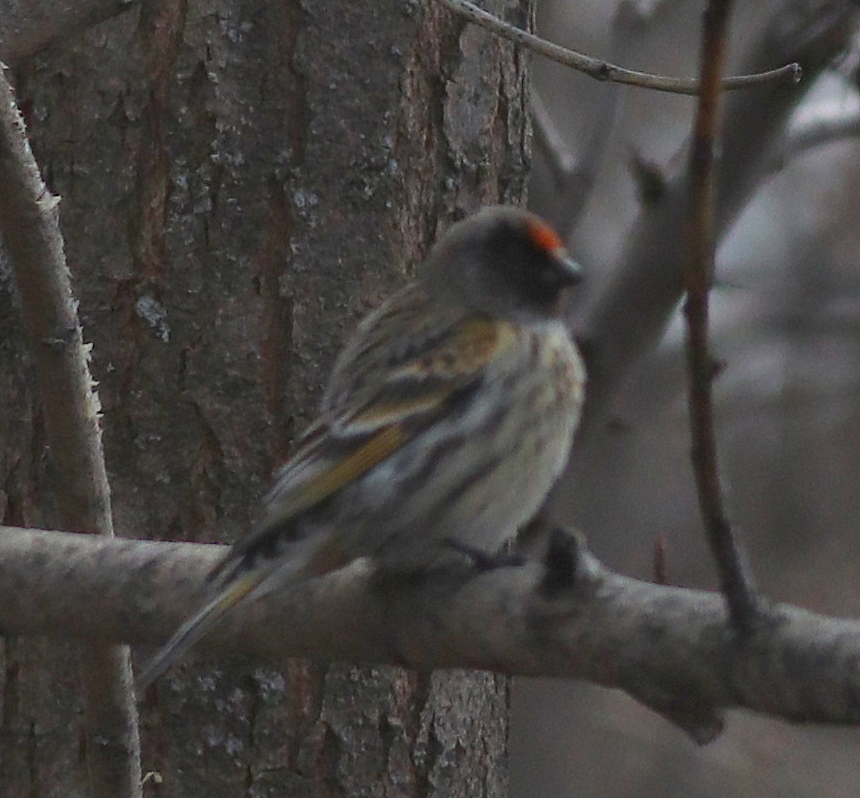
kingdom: Animalia
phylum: Chordata
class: Aves
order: Passeriformes
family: Fringillidae
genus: Serinus
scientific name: Serinus pusillus
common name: Red-fronted serin
